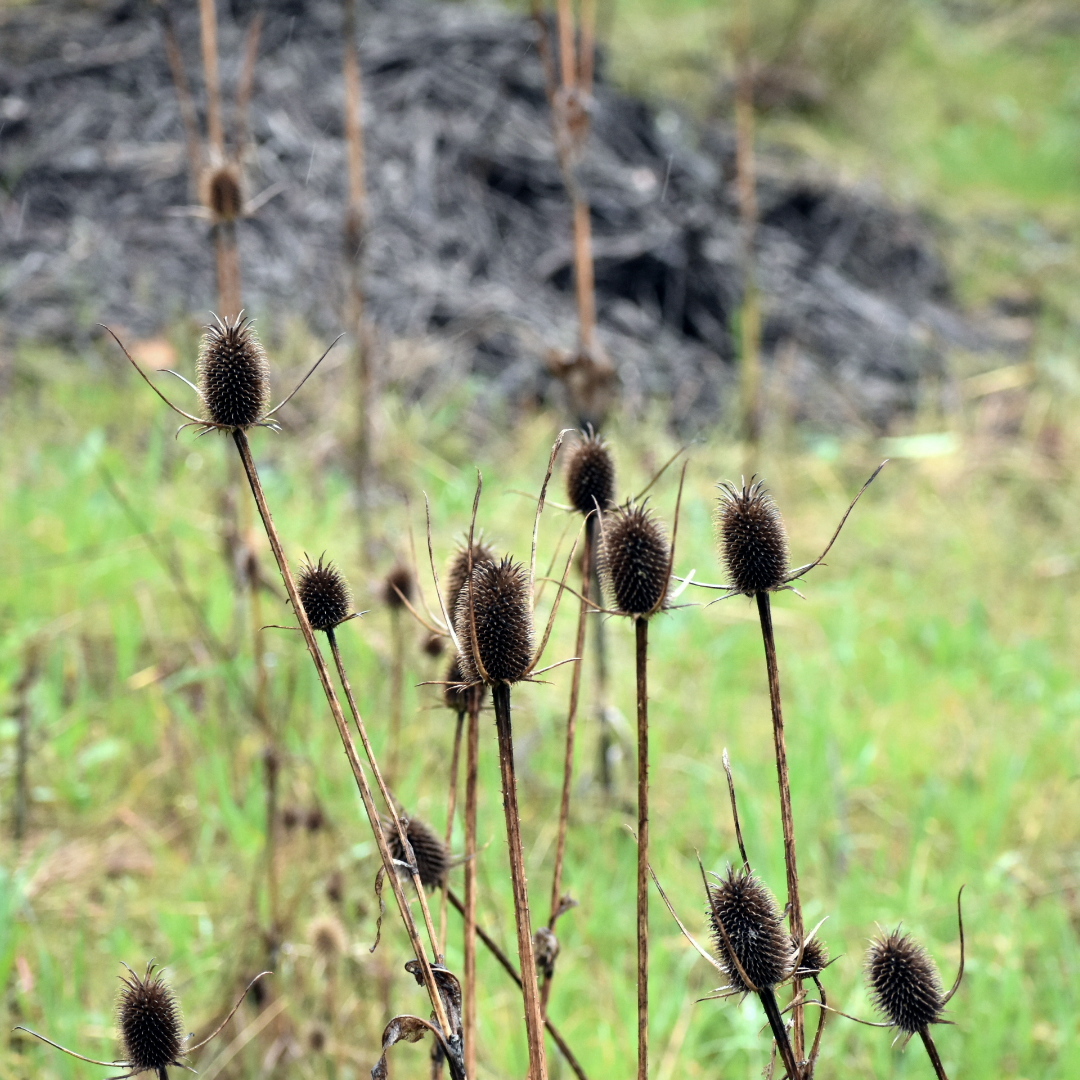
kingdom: Plantae
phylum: Tracheophyta
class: Magnoliopsida
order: Dipsacales
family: Caprifoliaceae
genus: Dipsacus
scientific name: Dipsacus sativus
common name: Fuller's teasel
